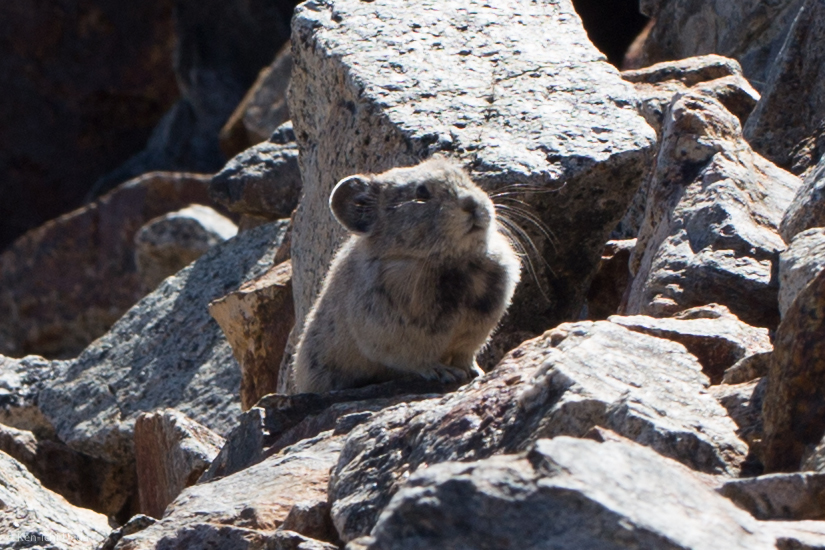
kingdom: Animalia
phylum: Chordata
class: Mammalia
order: Lagomorpha
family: Ochotonidae
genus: Ochotona
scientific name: Ochotona princeps
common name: American pika
